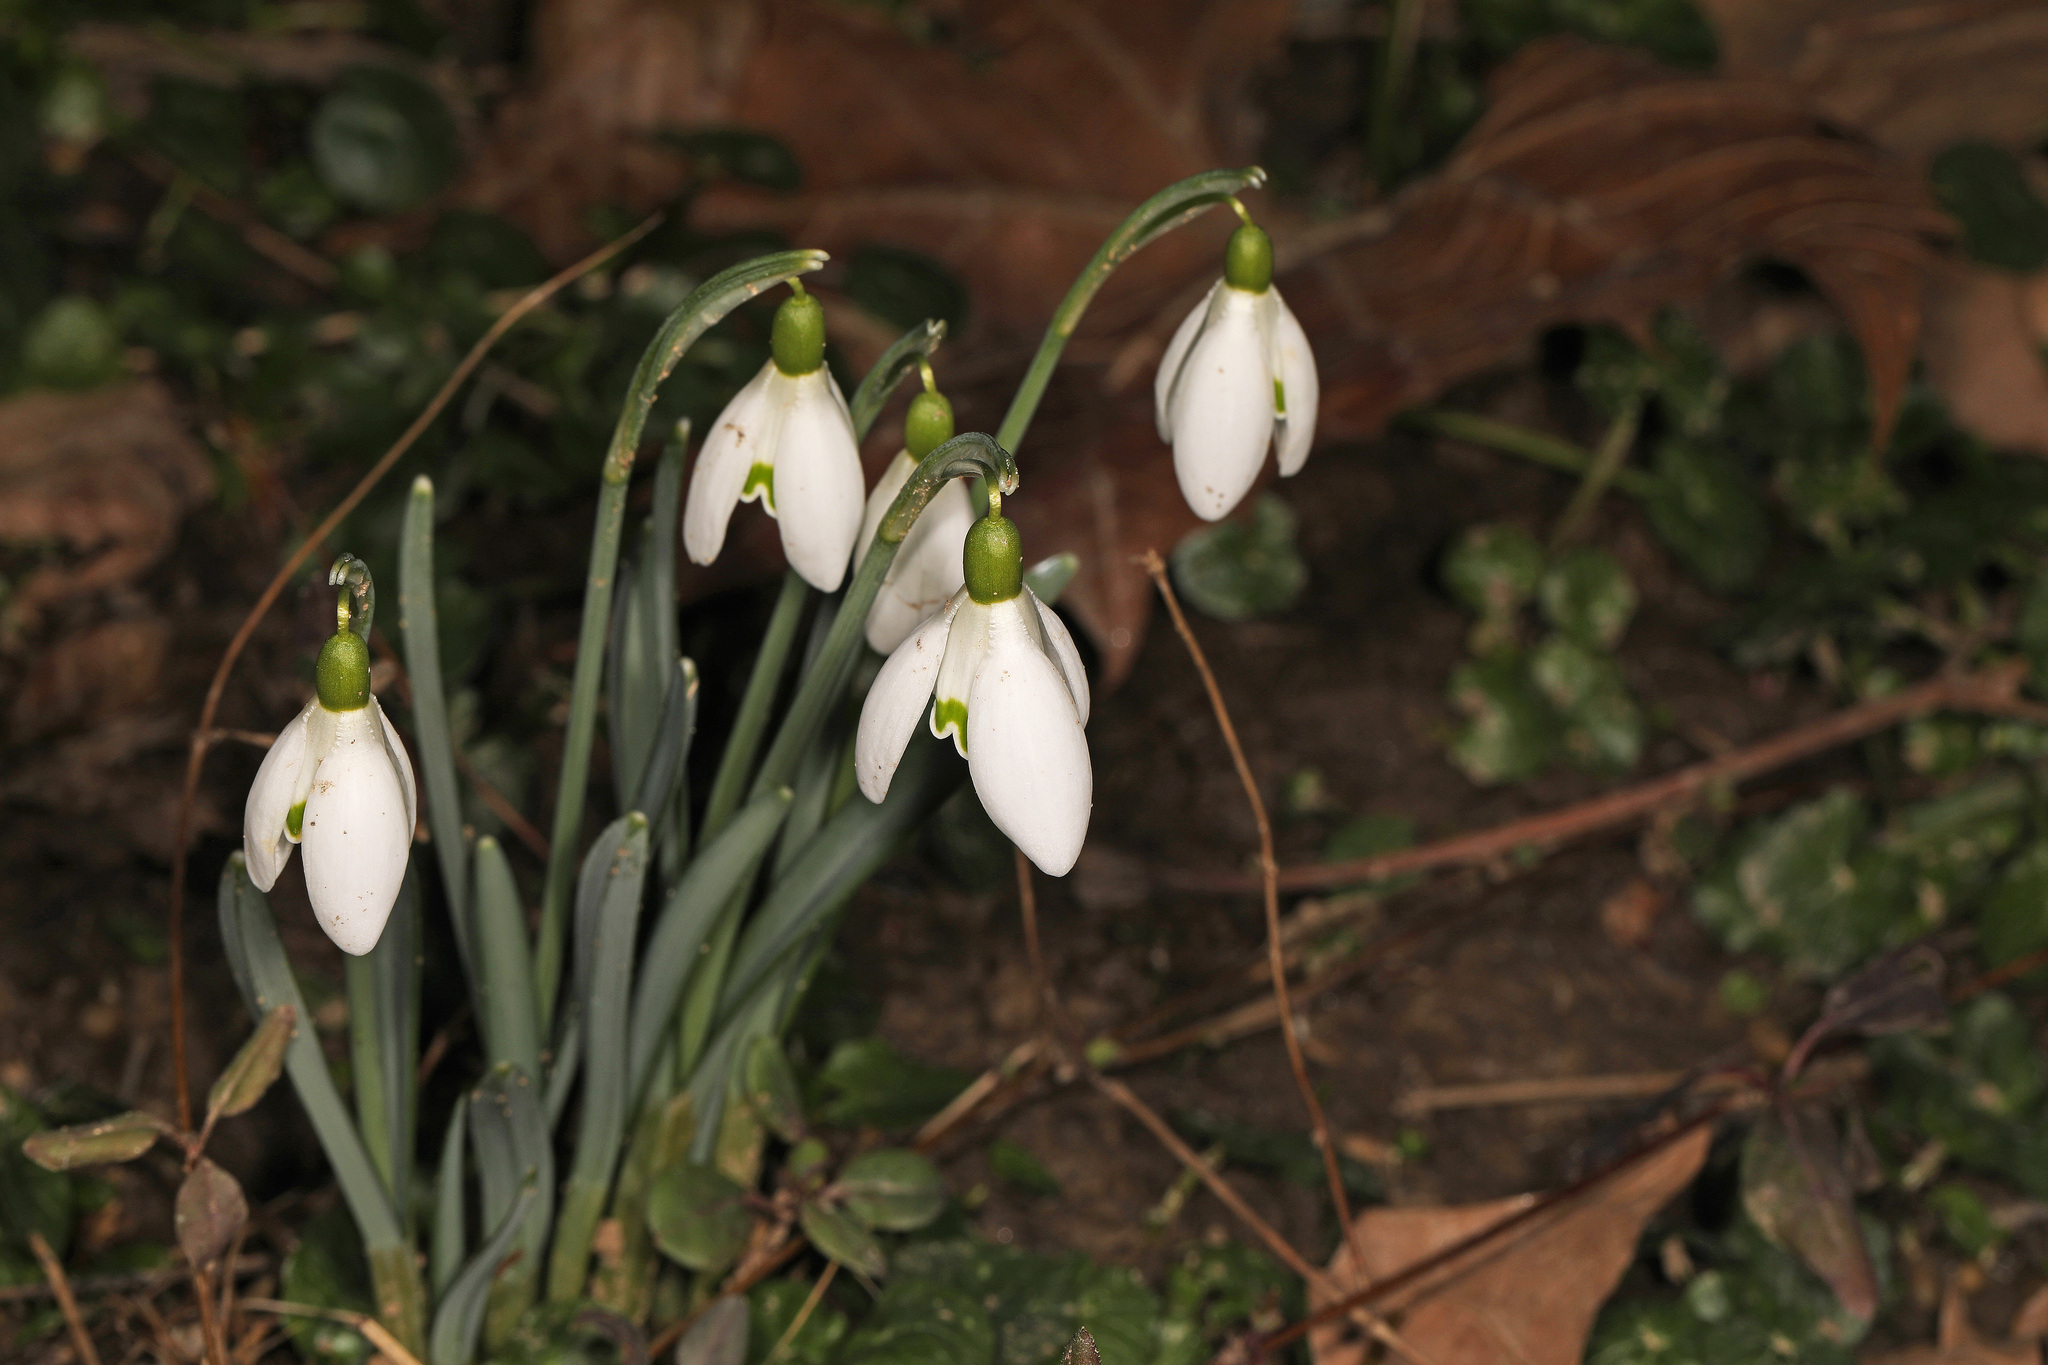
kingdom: Plantae
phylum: Tracheophyta
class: Liliopsida
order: Asparagales
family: Amaryllidaceae
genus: Galanthus
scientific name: Galanthus nivalis
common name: Snowdrop
